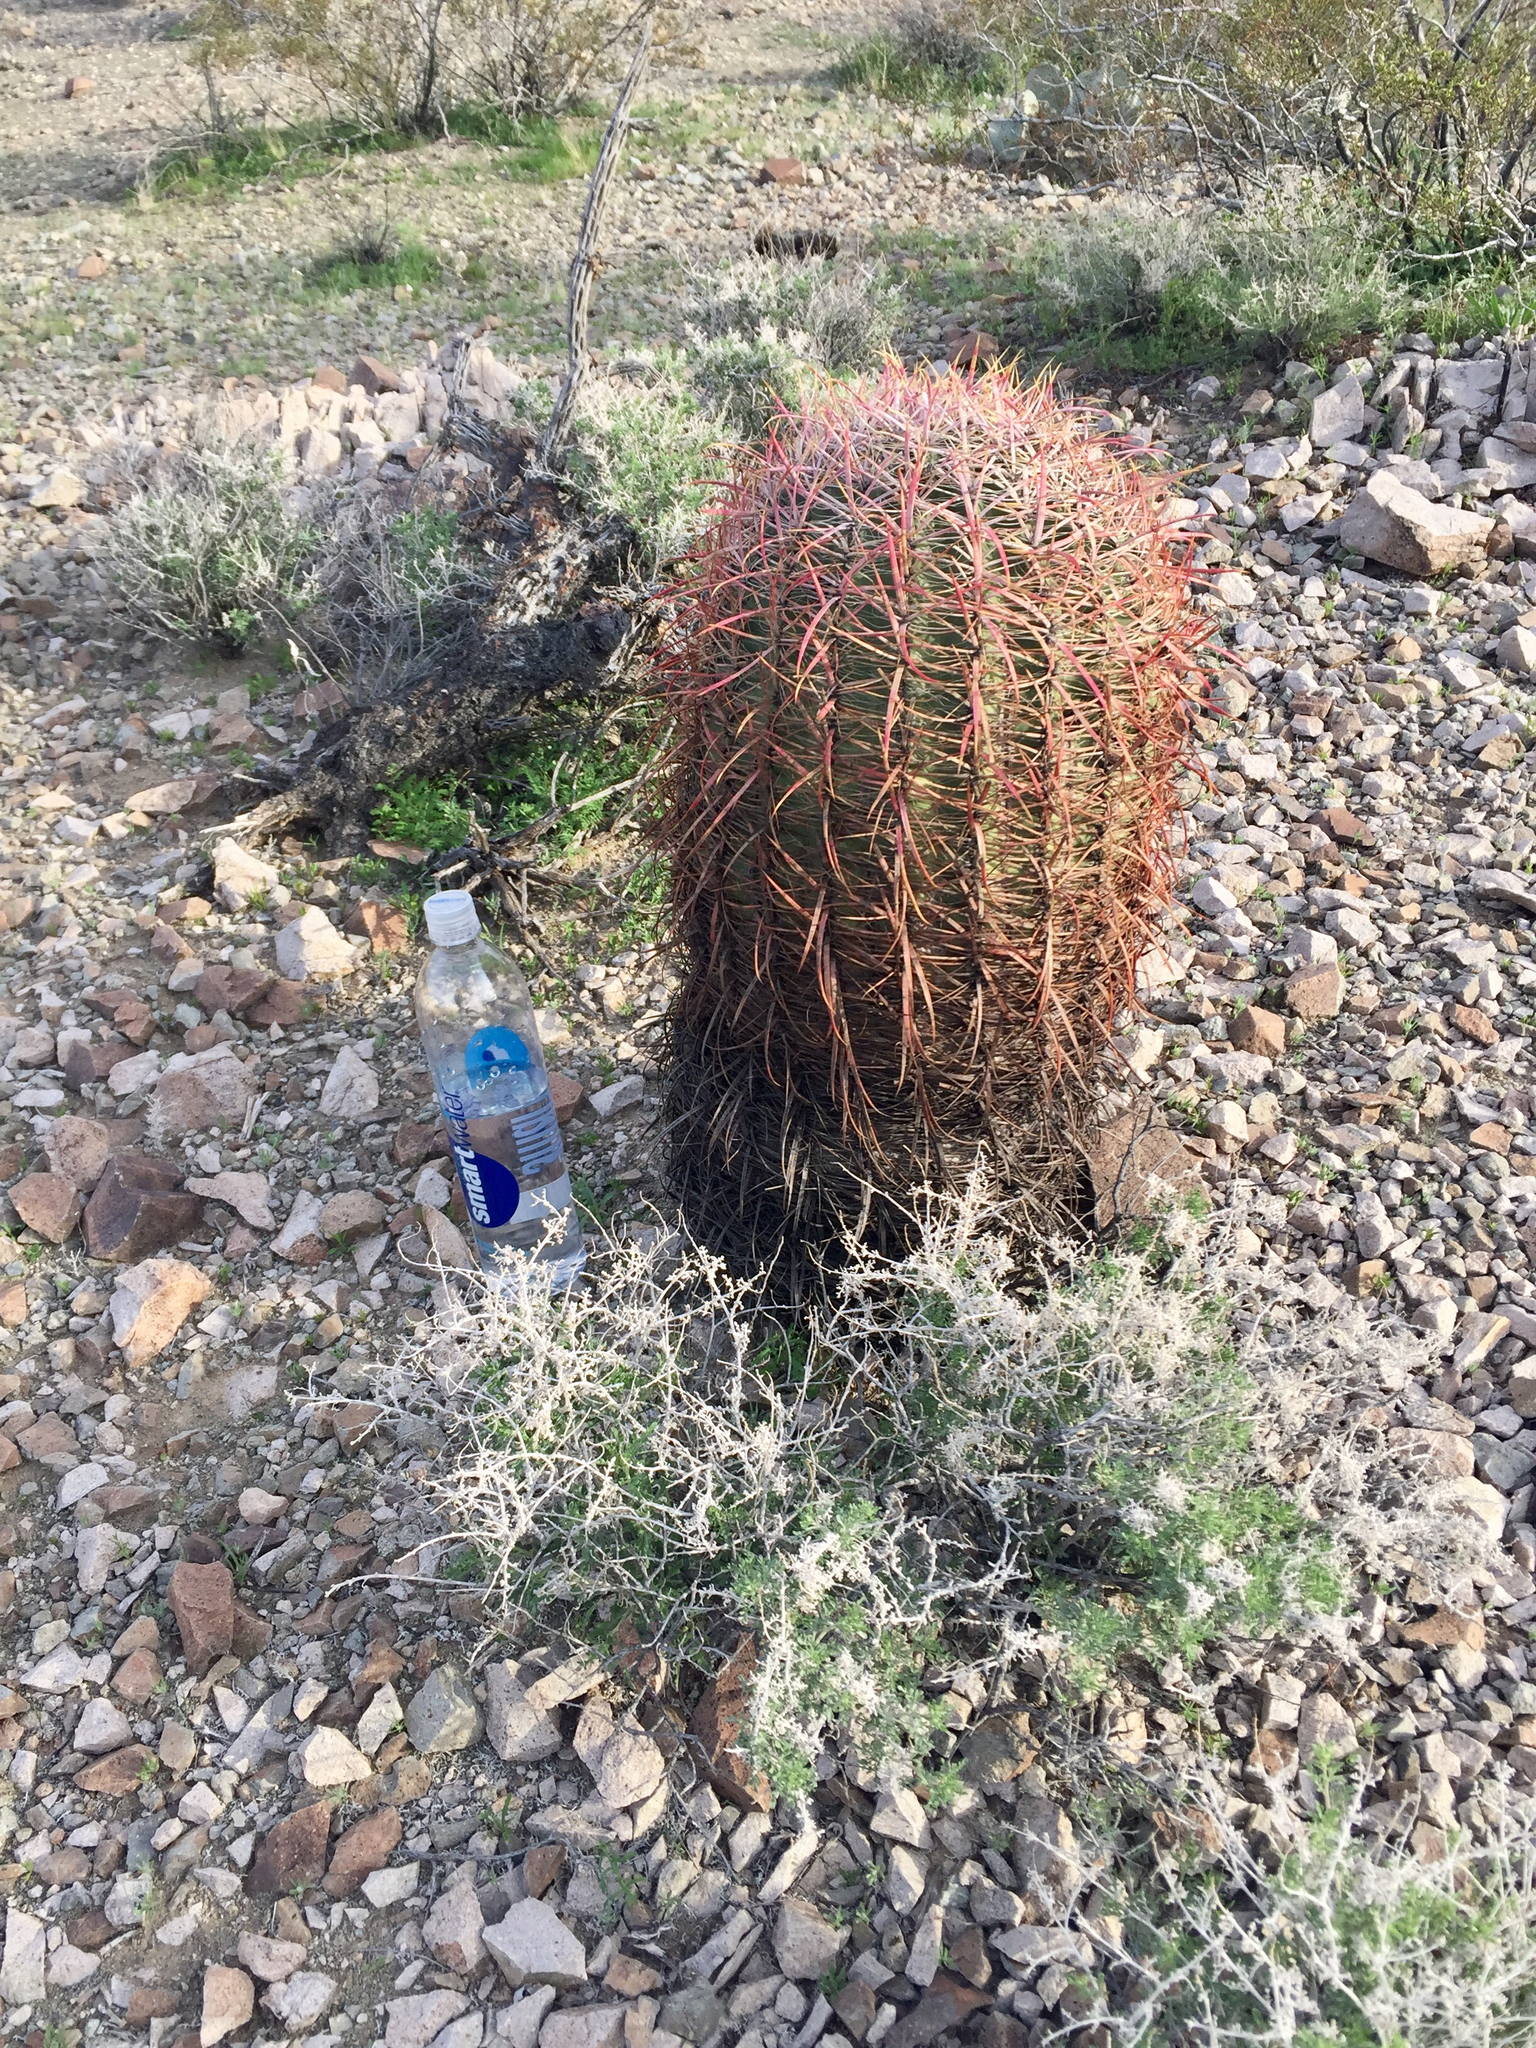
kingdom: Plantae
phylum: Tracheophyta
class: Magnoliopsida
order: Caryophyllales
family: Cactaceae
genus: Ferocactus
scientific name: Ferocactus cylindraceus
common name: California barrel cactus
